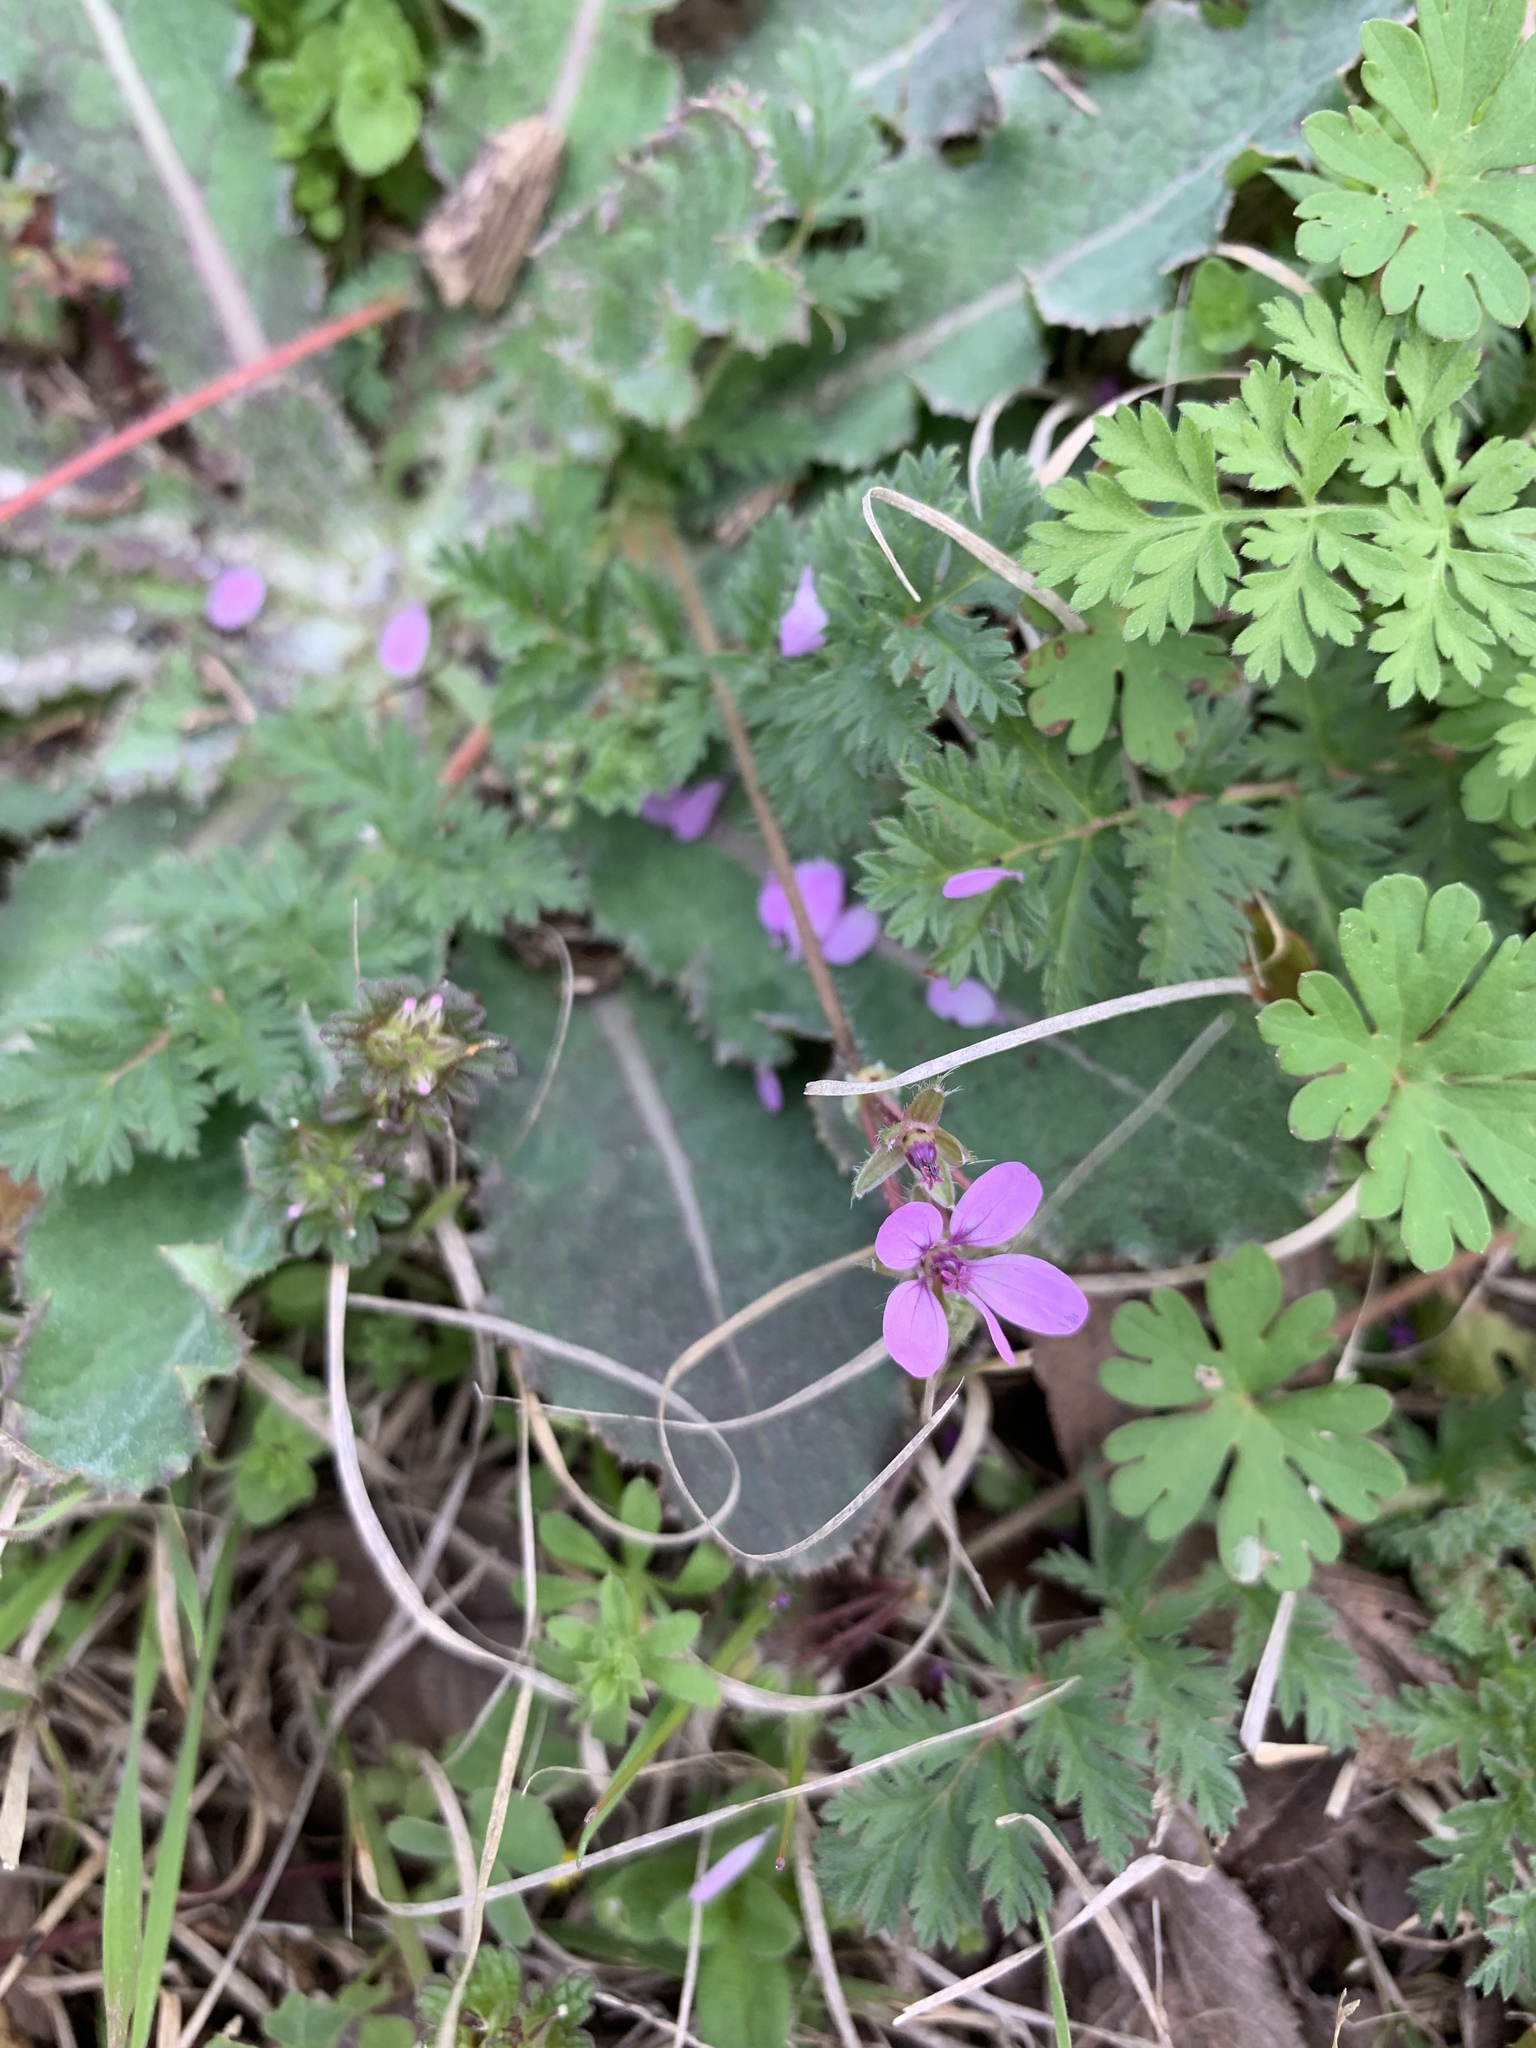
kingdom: Plantae
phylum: Tracheophyta
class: Magnoliopsida
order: Geraniales
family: Geraniaceae
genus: Erodium
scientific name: Erodium cicutarium
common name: Common stork's-bill
